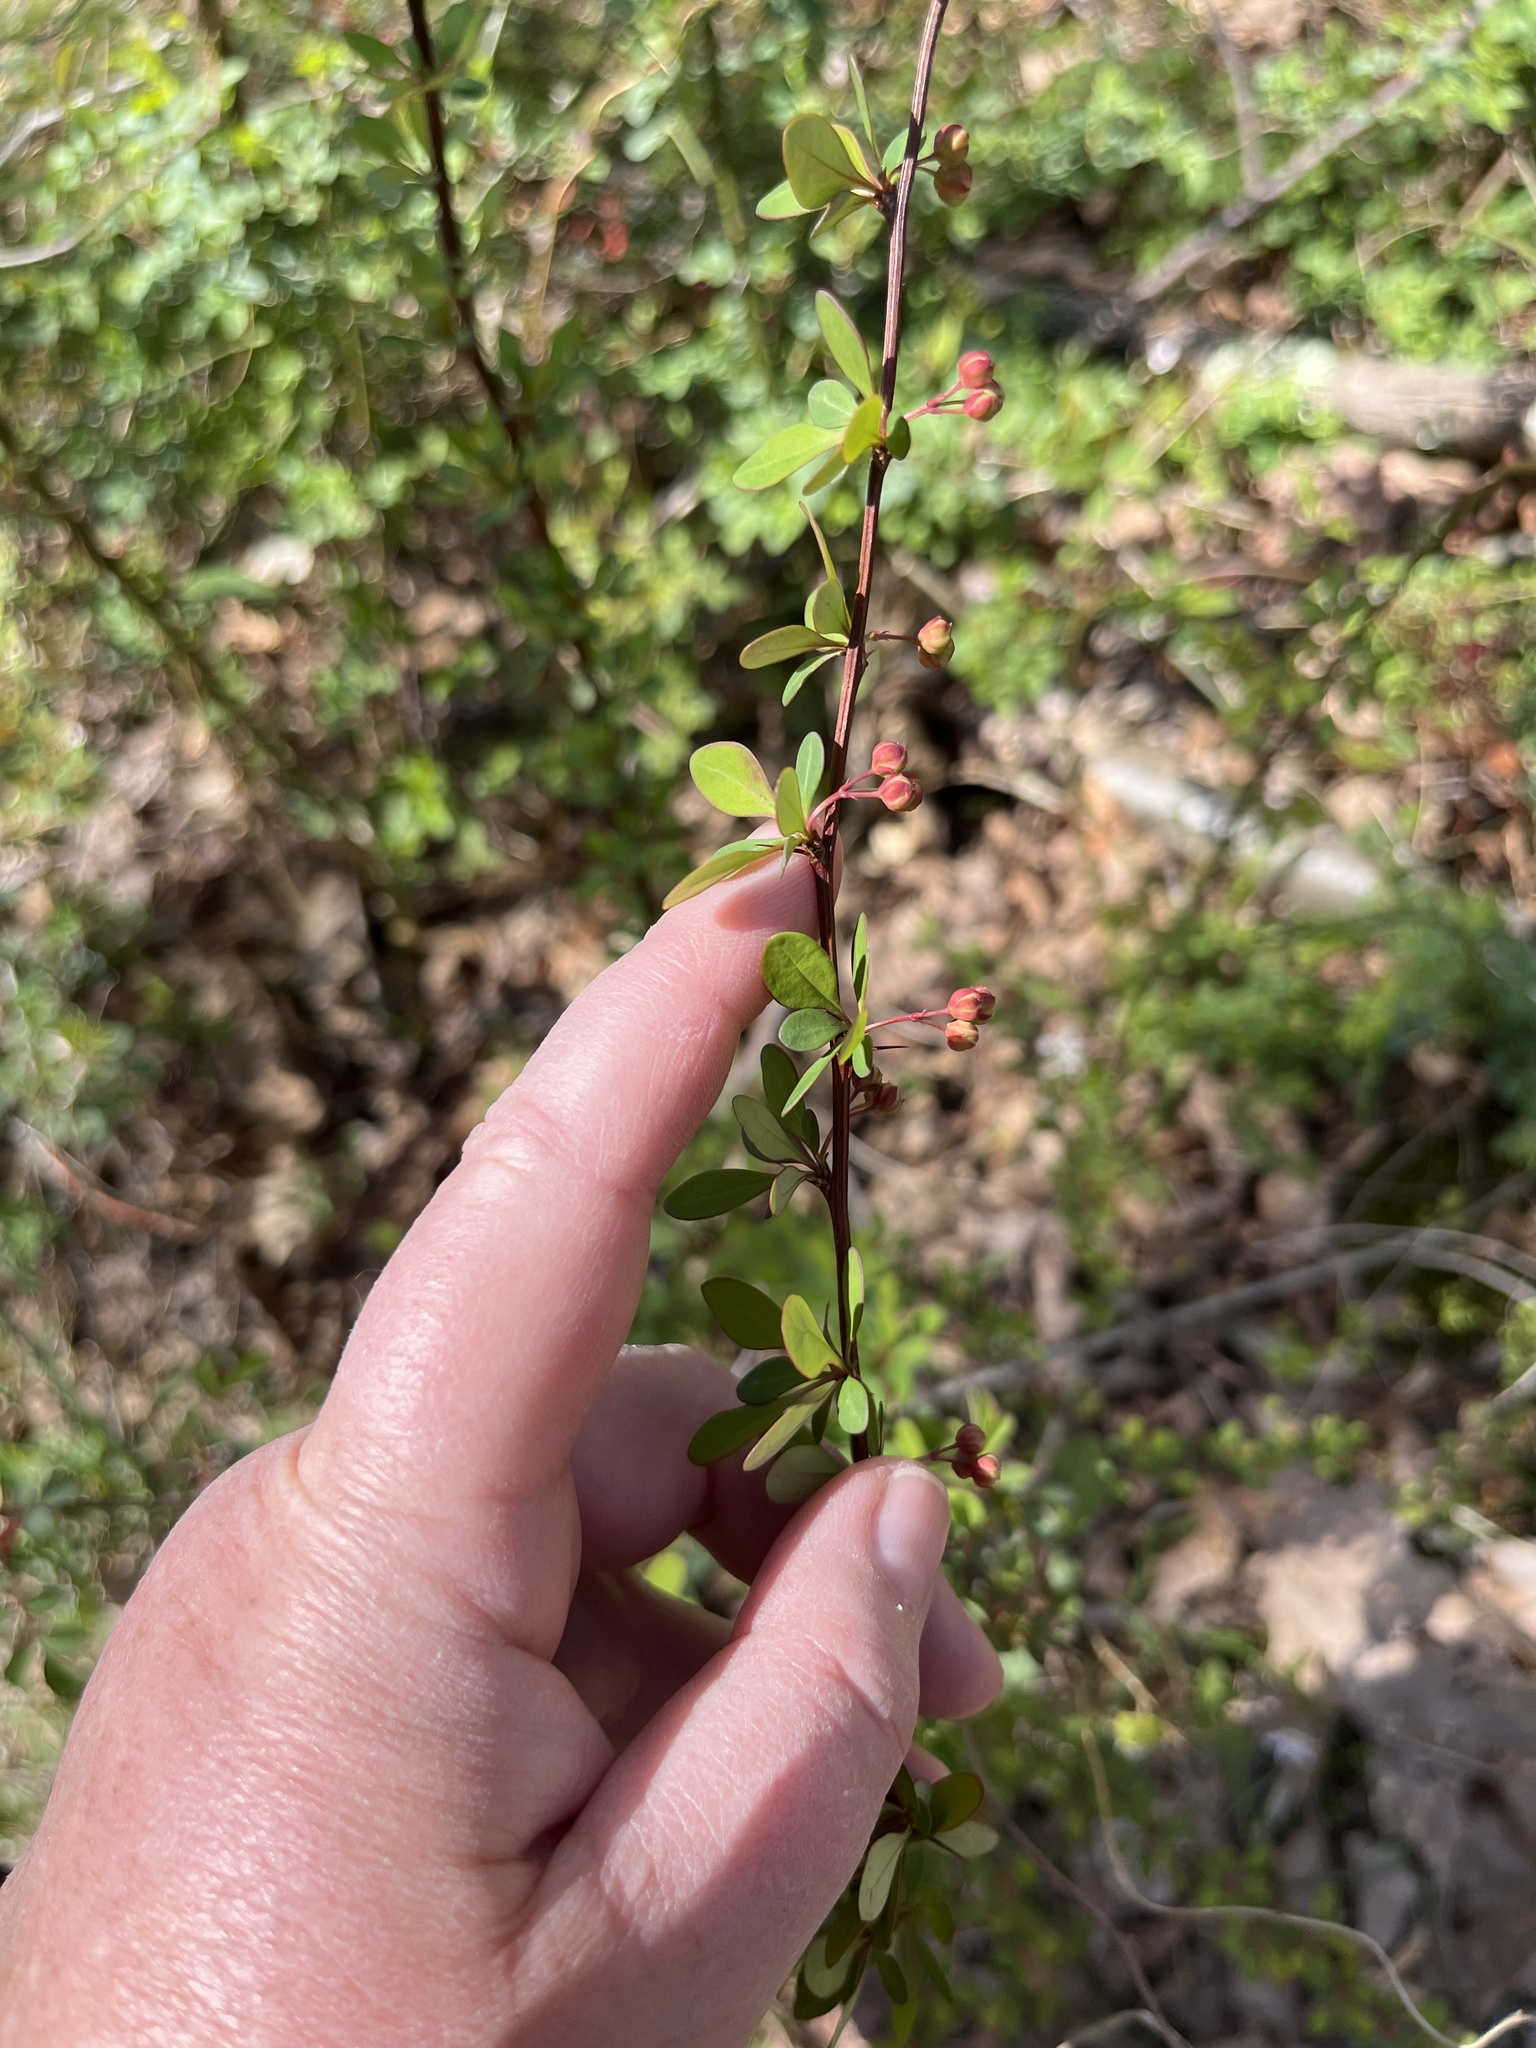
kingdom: Plantae
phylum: Tracheophyta
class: Magnoliopsida
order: Ranunculales
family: Berberidaceae
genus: Berberis
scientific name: Berberis thunbergii
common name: Japanese barberry
